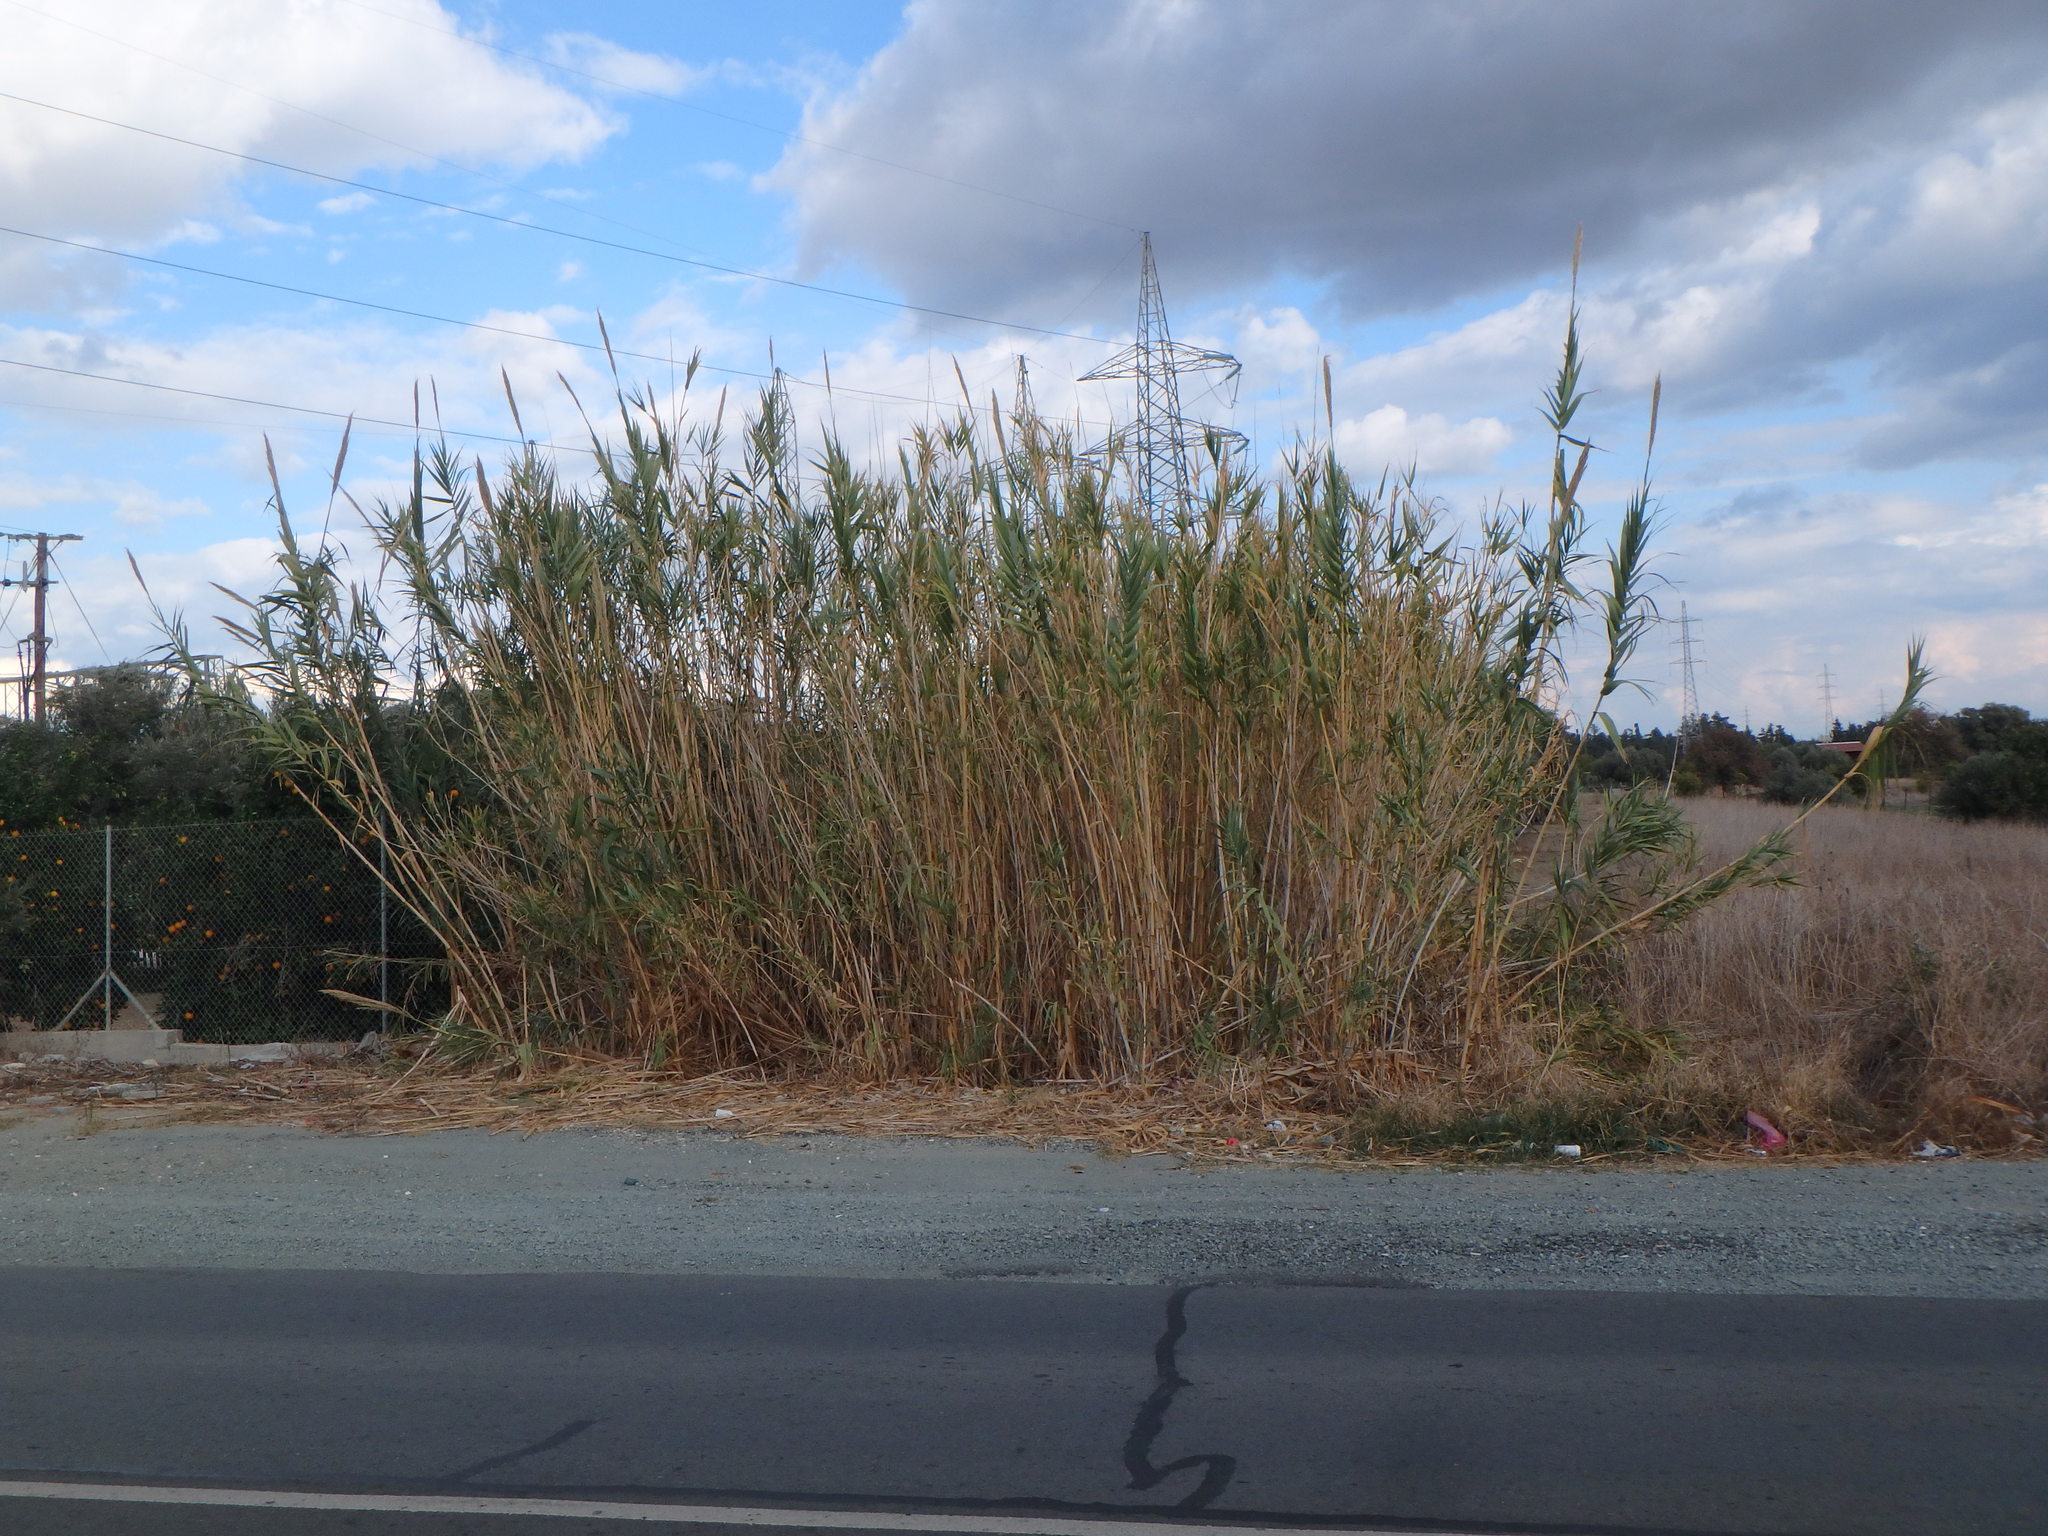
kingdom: Plantae
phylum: Tracheophyta
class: Liliopsida
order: Poales
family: Poaceae
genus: Arundo
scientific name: Arundo donax
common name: Giant reed
